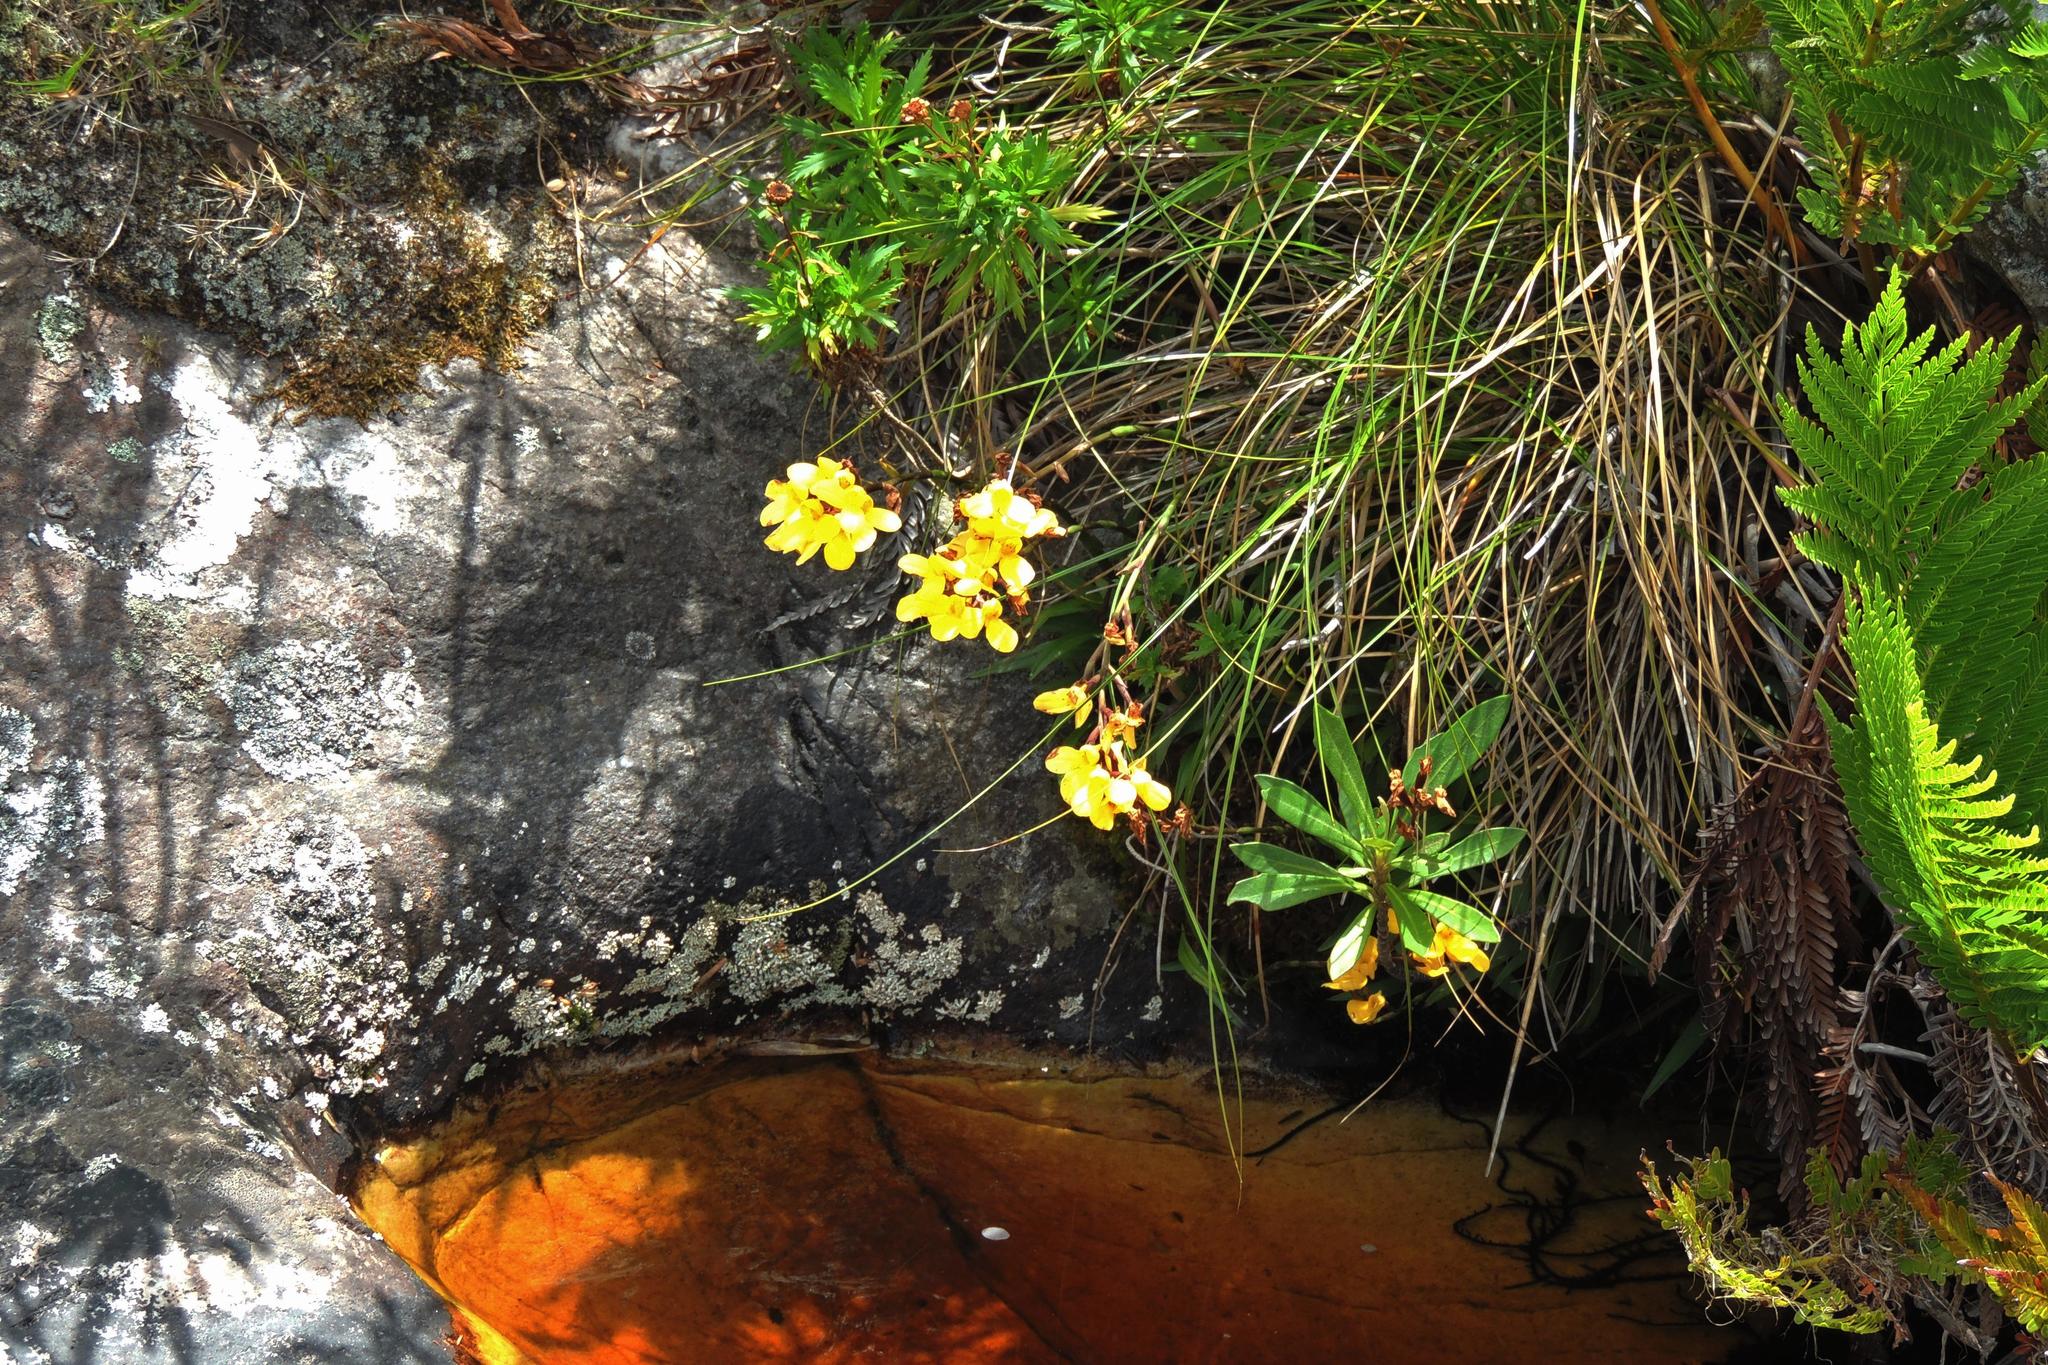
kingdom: Plantae
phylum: Tracheophyta
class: Liliopsida
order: Asparagales
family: Orchidaceae
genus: Disa
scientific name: Disa aurata
